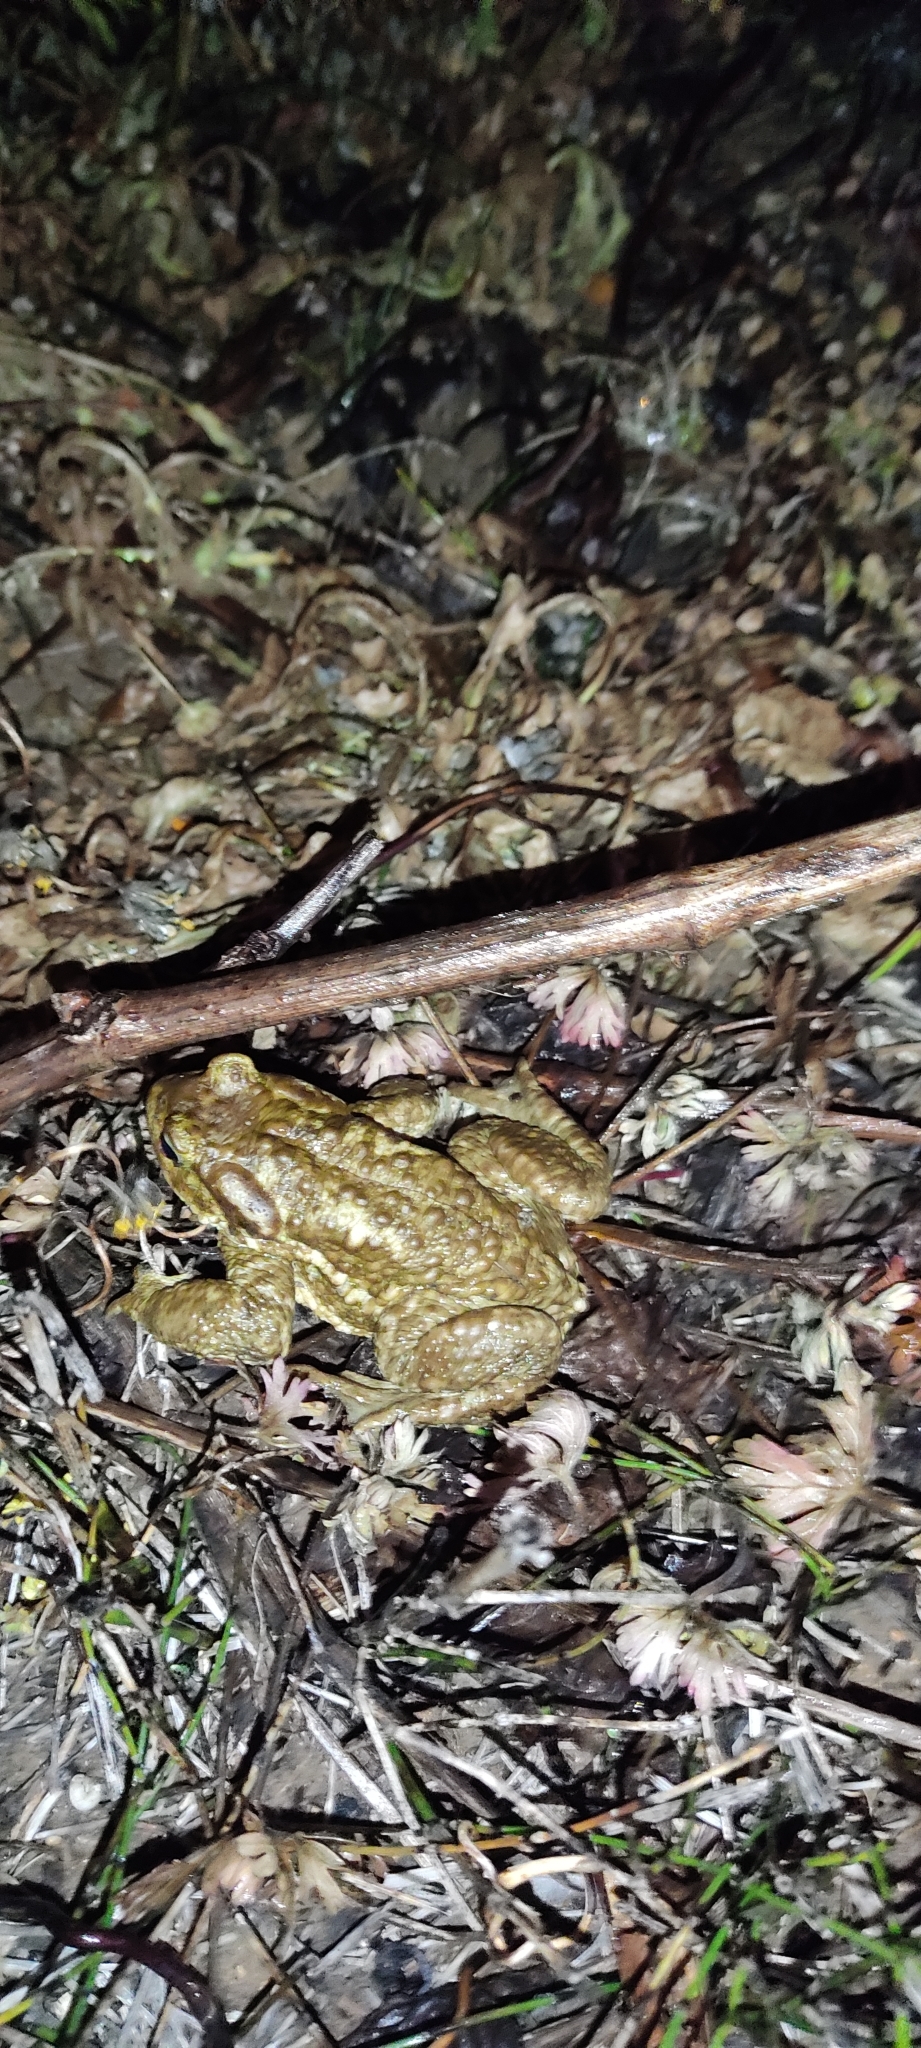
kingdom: Animalia
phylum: Chordata
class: Amphibia
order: Anura
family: Bufonidae
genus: Bufo
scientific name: Bufo spinosus
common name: Western common toad
